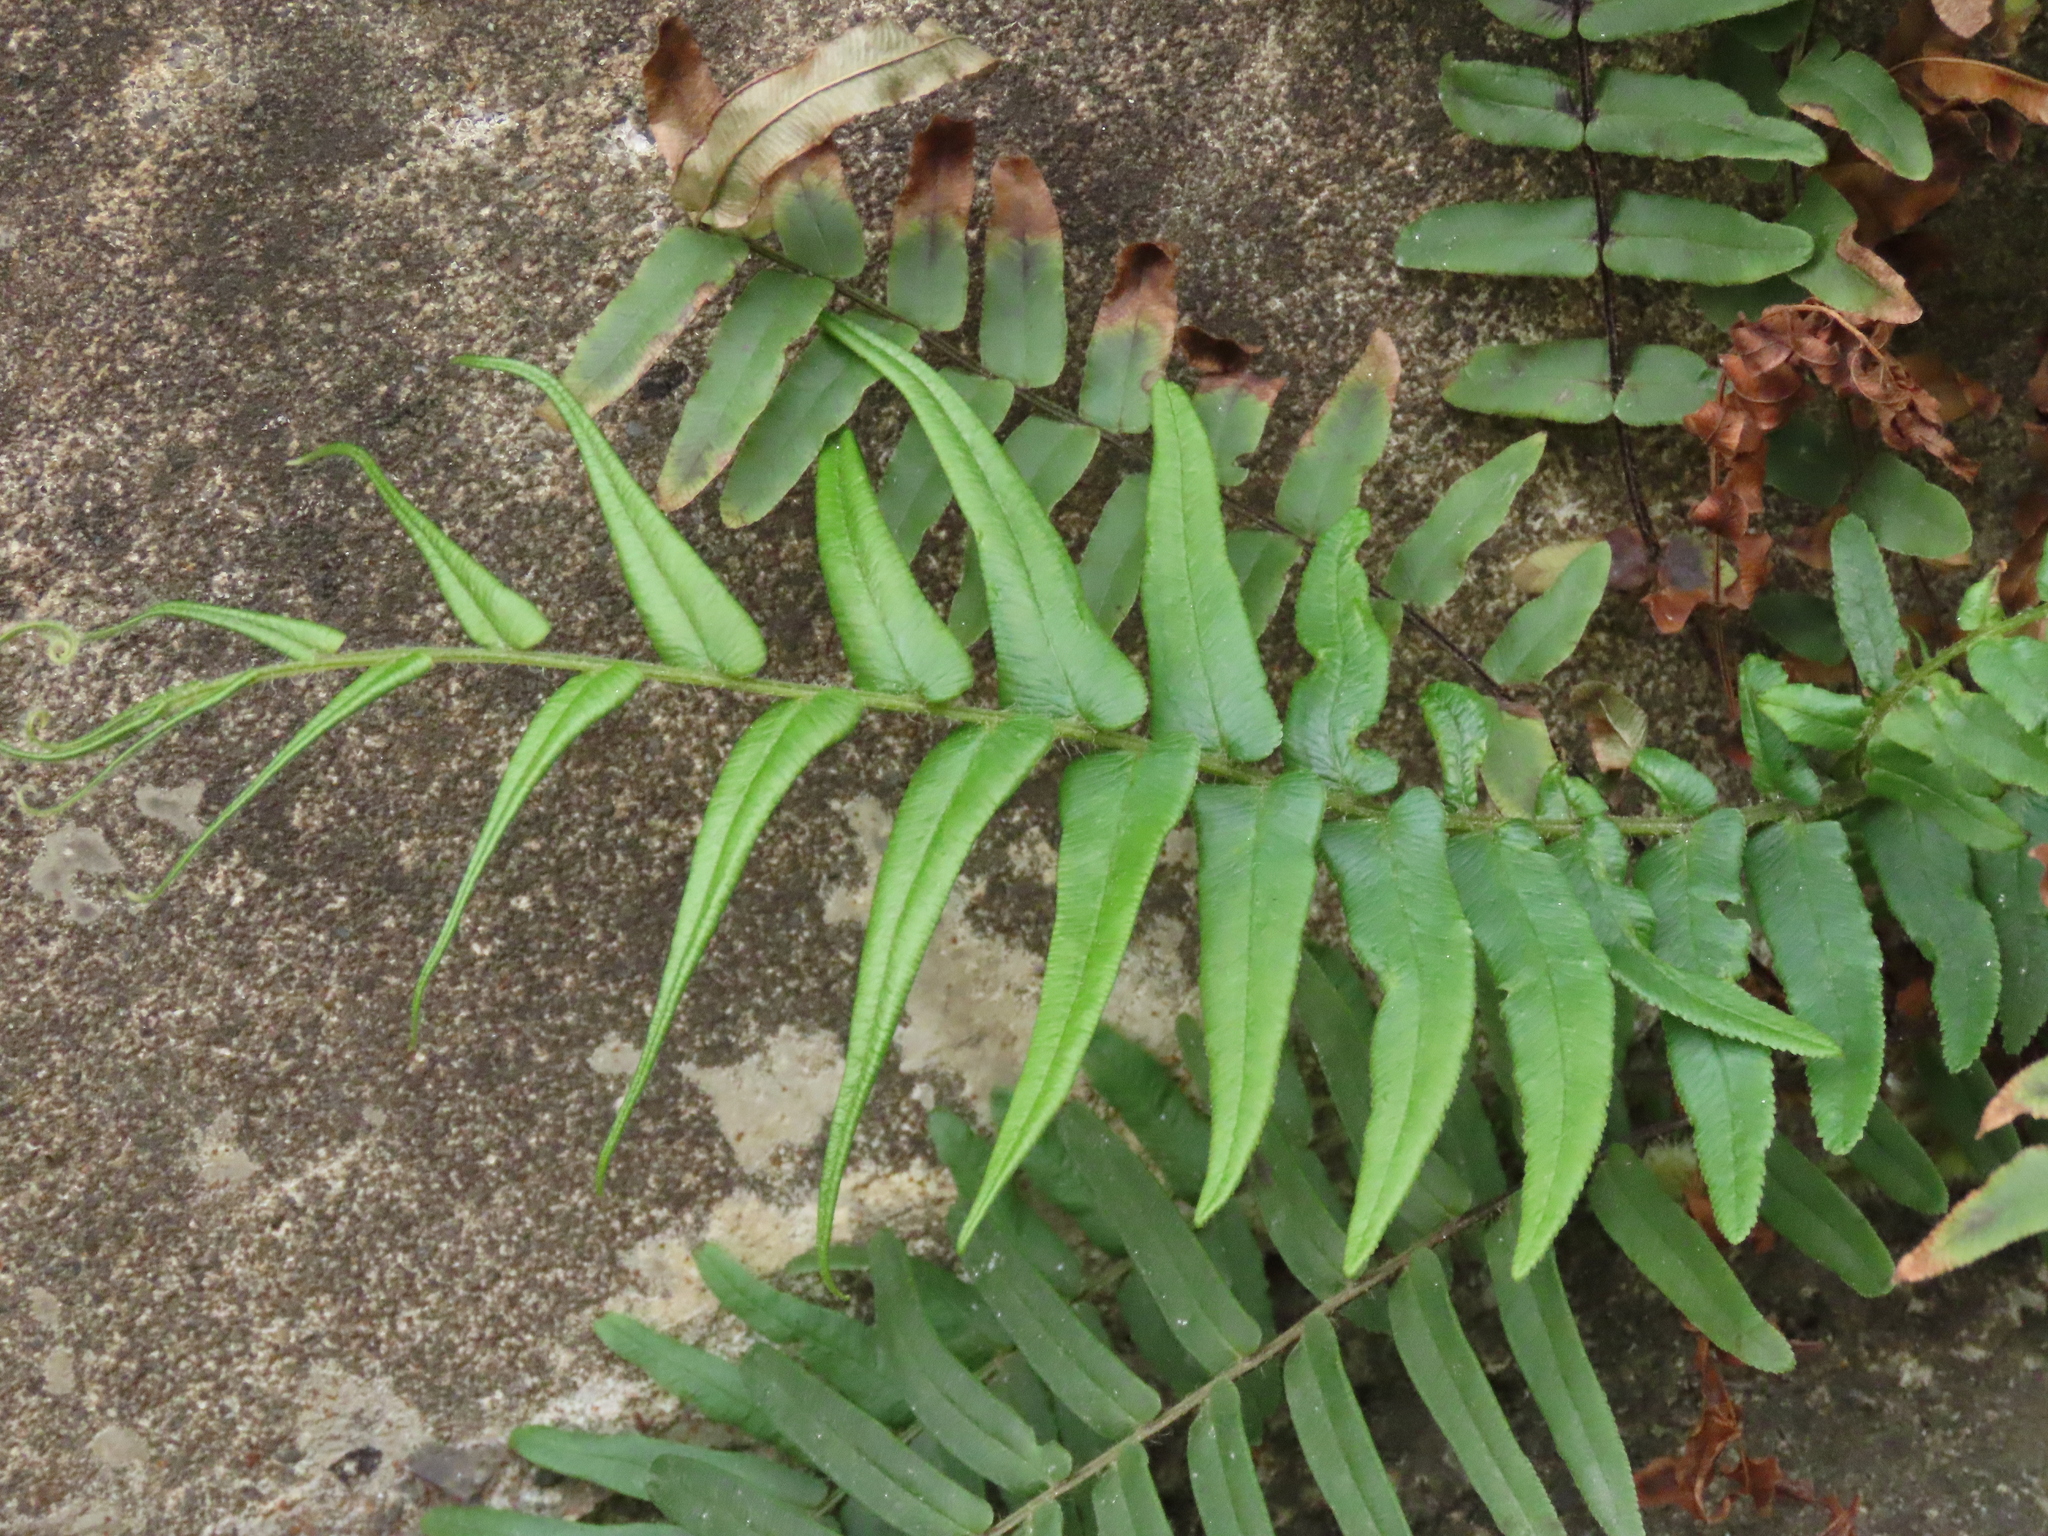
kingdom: Plantae
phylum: Tracheophyta
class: Polypodiopsida
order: Polypodiales
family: Pteridaceae
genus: Pteris
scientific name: Pteris vittata
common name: Ladder brake
